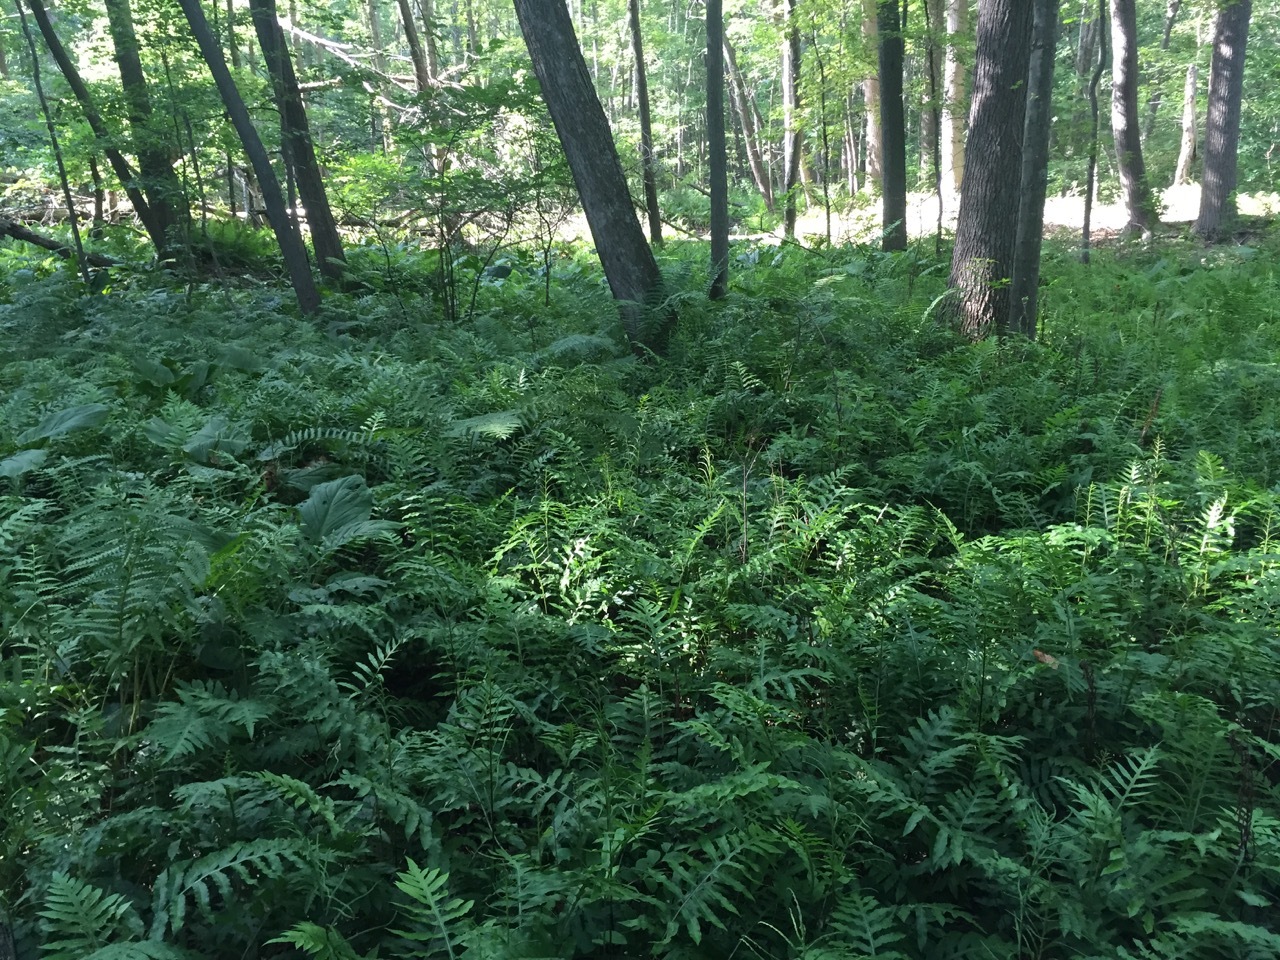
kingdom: Plantae
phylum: Tracheophyta
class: Polypodiopsida
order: Polypodiales
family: Blechnaceae
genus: Lorinseria
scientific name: Lorinseria areolata
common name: Dwarf chain fern
